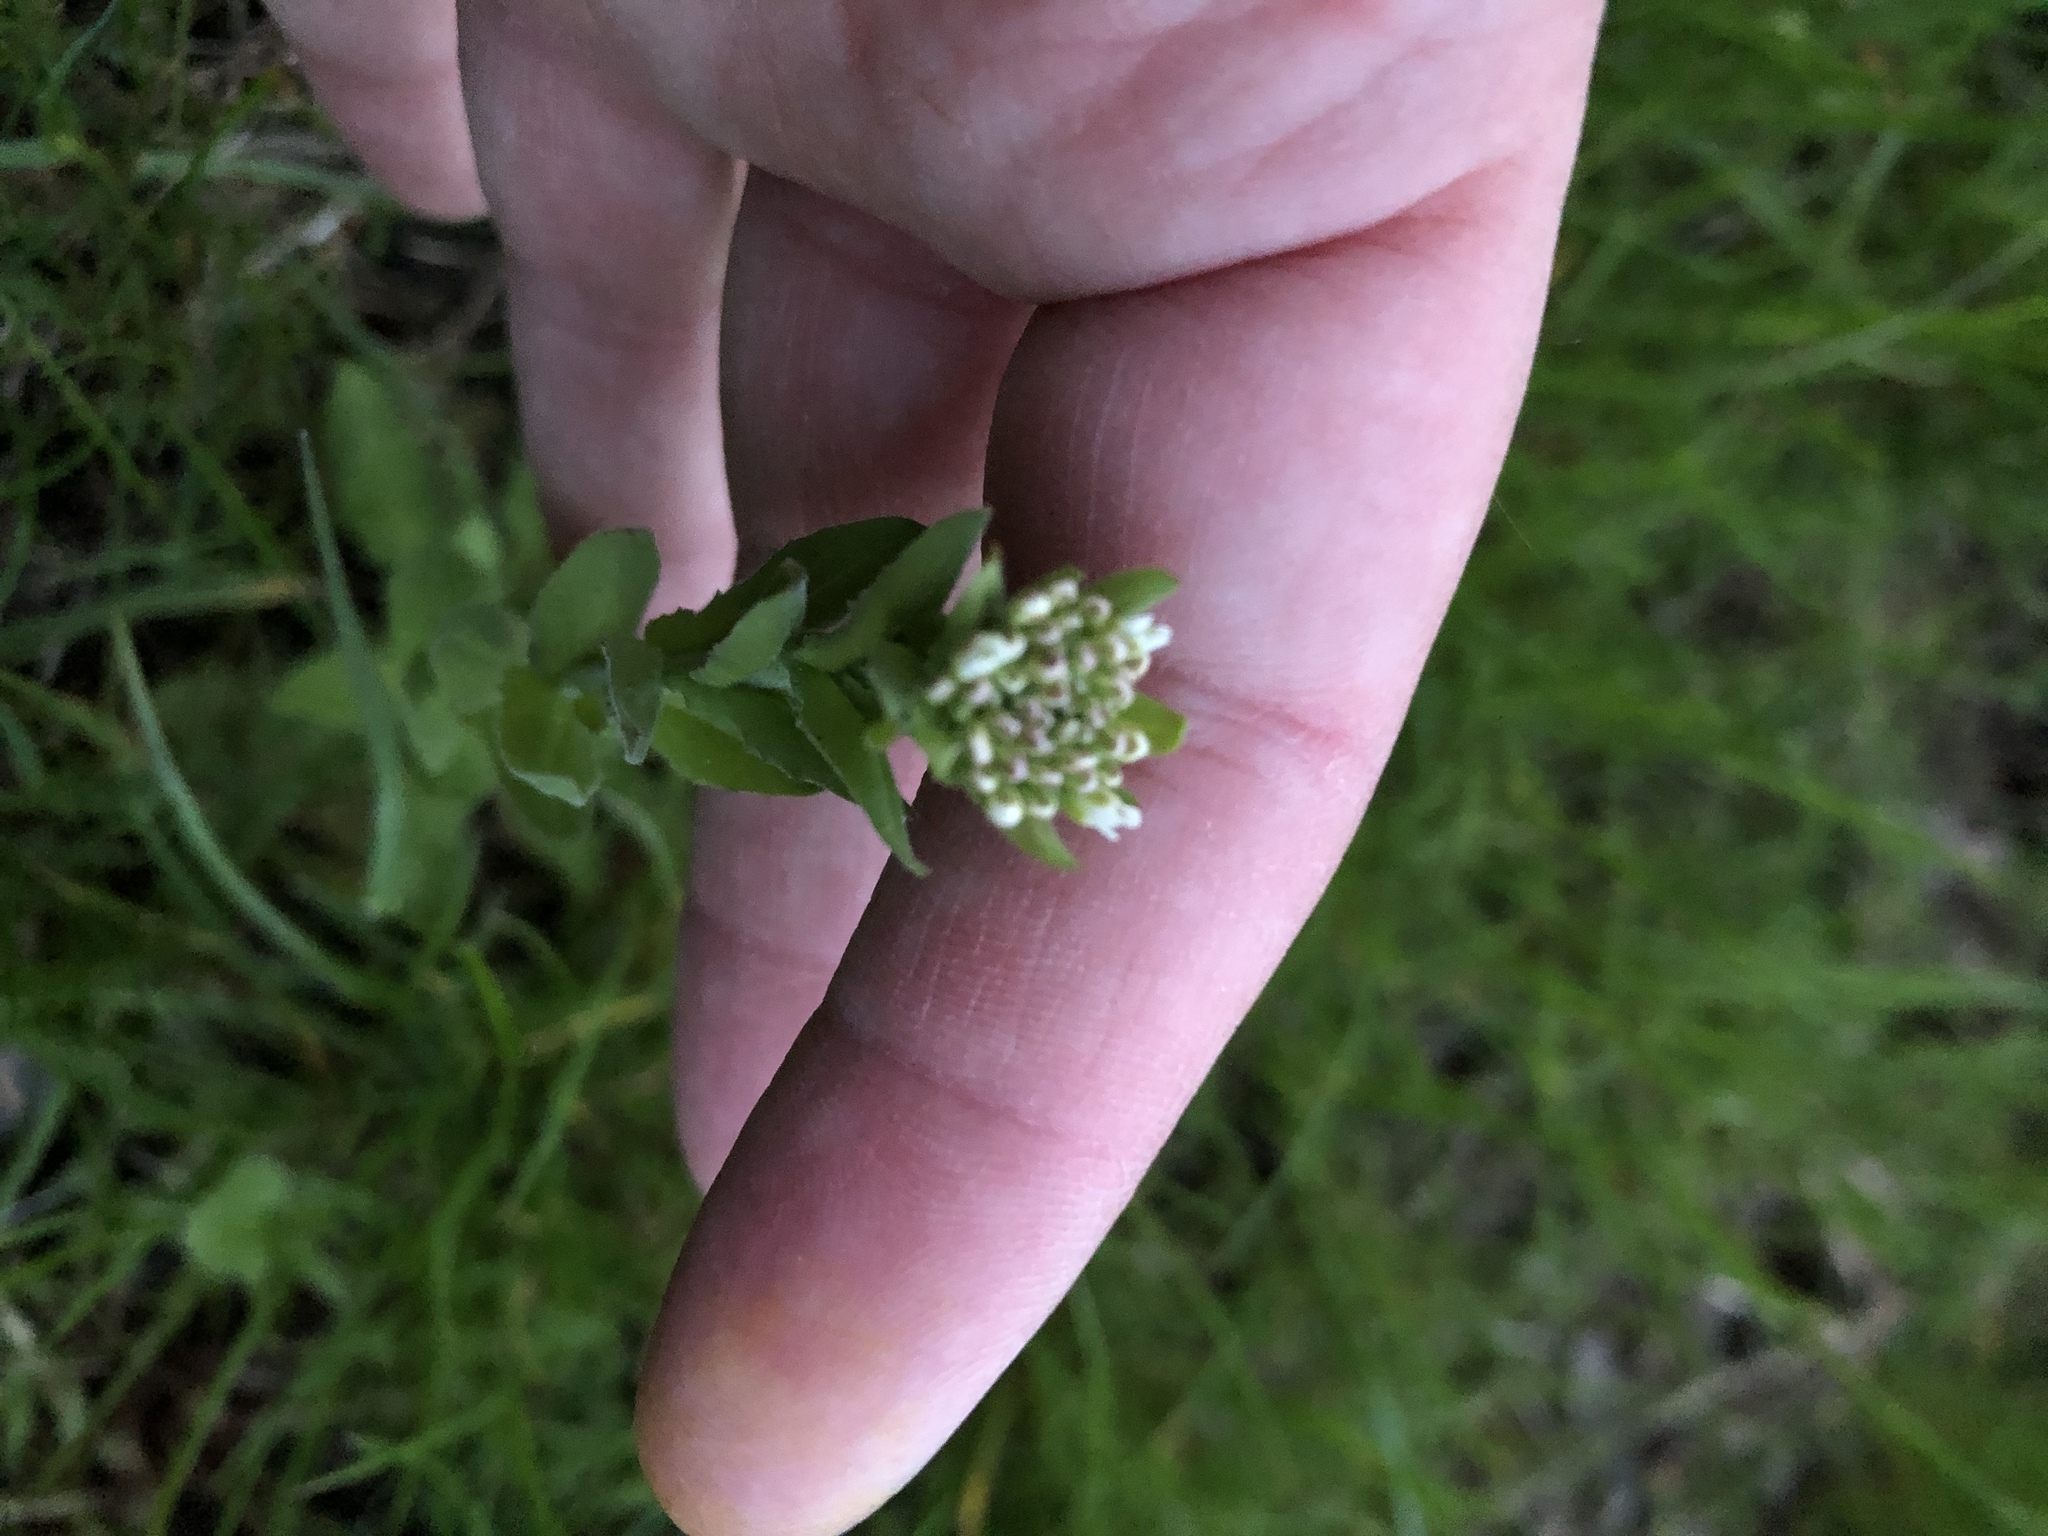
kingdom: Plantae
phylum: Tracheophyta
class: Magnoliopsida
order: Brassicales
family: Brassicaceae
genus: Lepidium
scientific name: Lepidium campestre
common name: Field pepperwort
